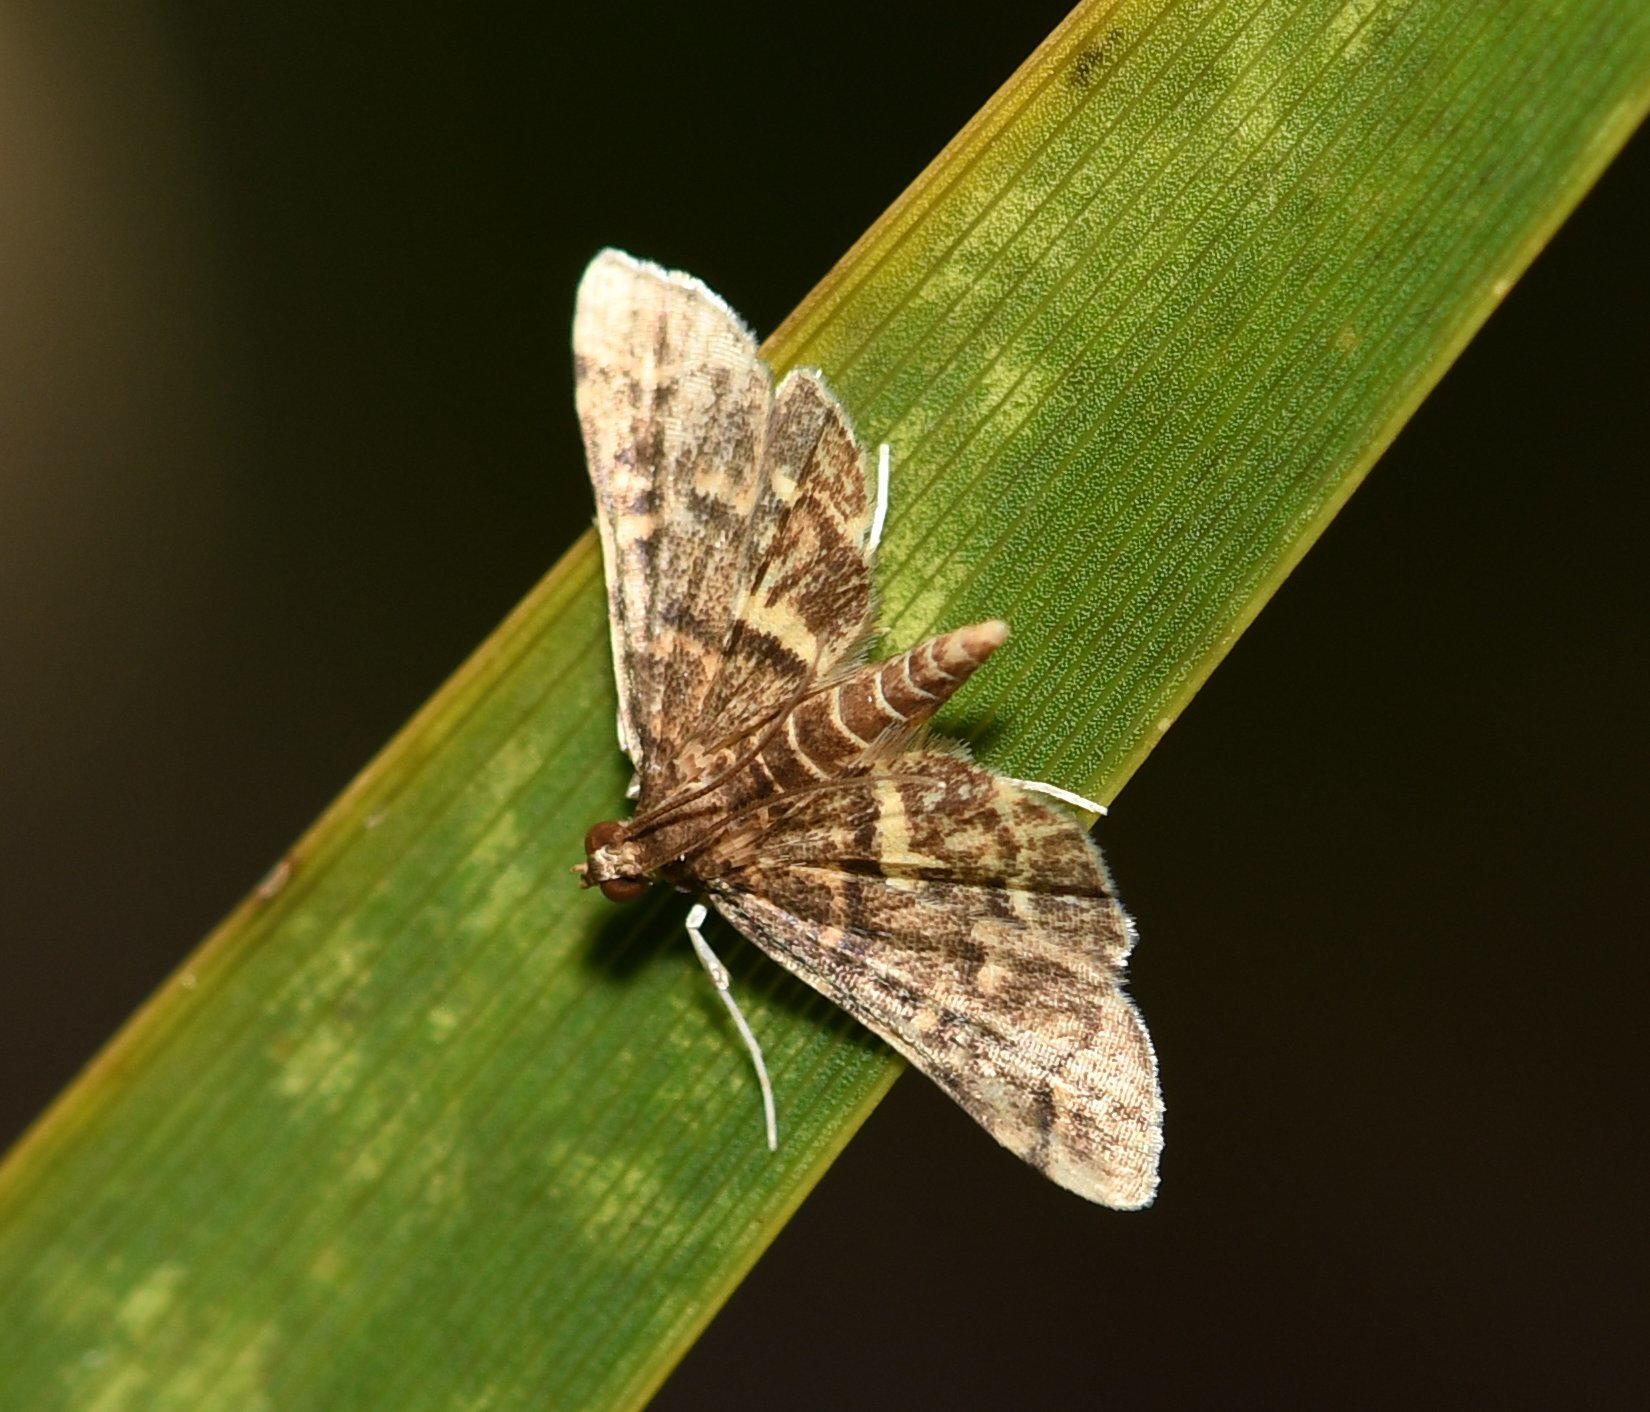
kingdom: Animalia
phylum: Arthropoda
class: Insecta
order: Lepidoptera
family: Crambidae
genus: Anageshna
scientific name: Anageshna primordialis
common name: Yellow-spotted webworm moth
